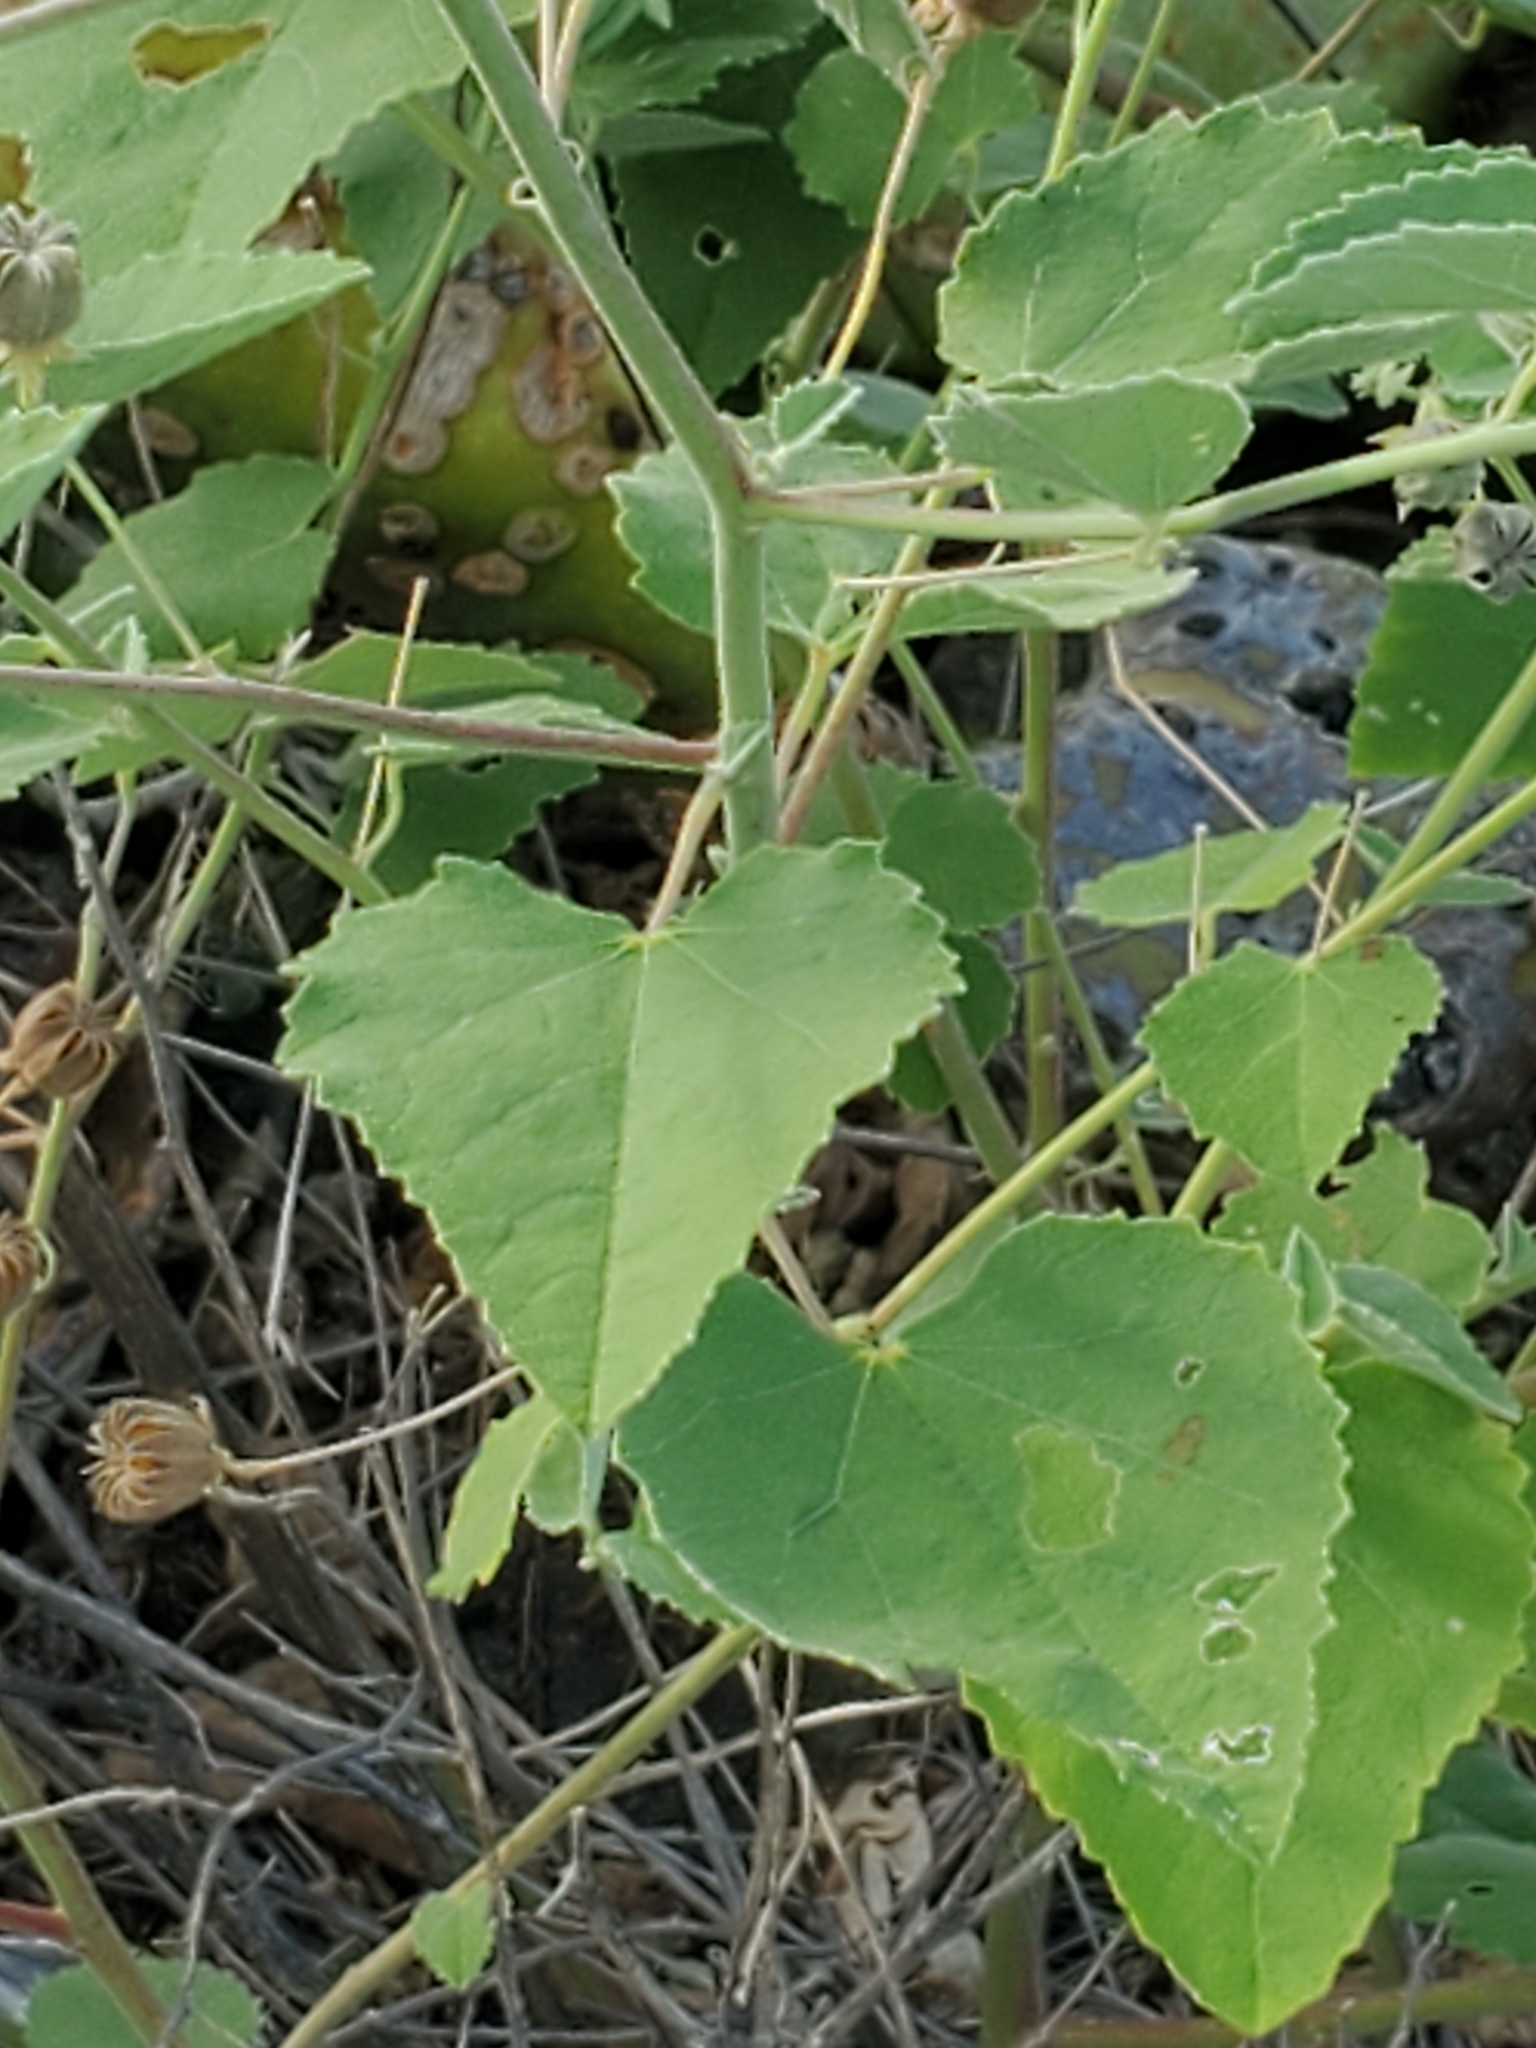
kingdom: Plantae
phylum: Tracheophyta
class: Magnoliopsida
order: Malvales
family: Malvaceae
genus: Abutilon
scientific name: Abutilon fruticosum
